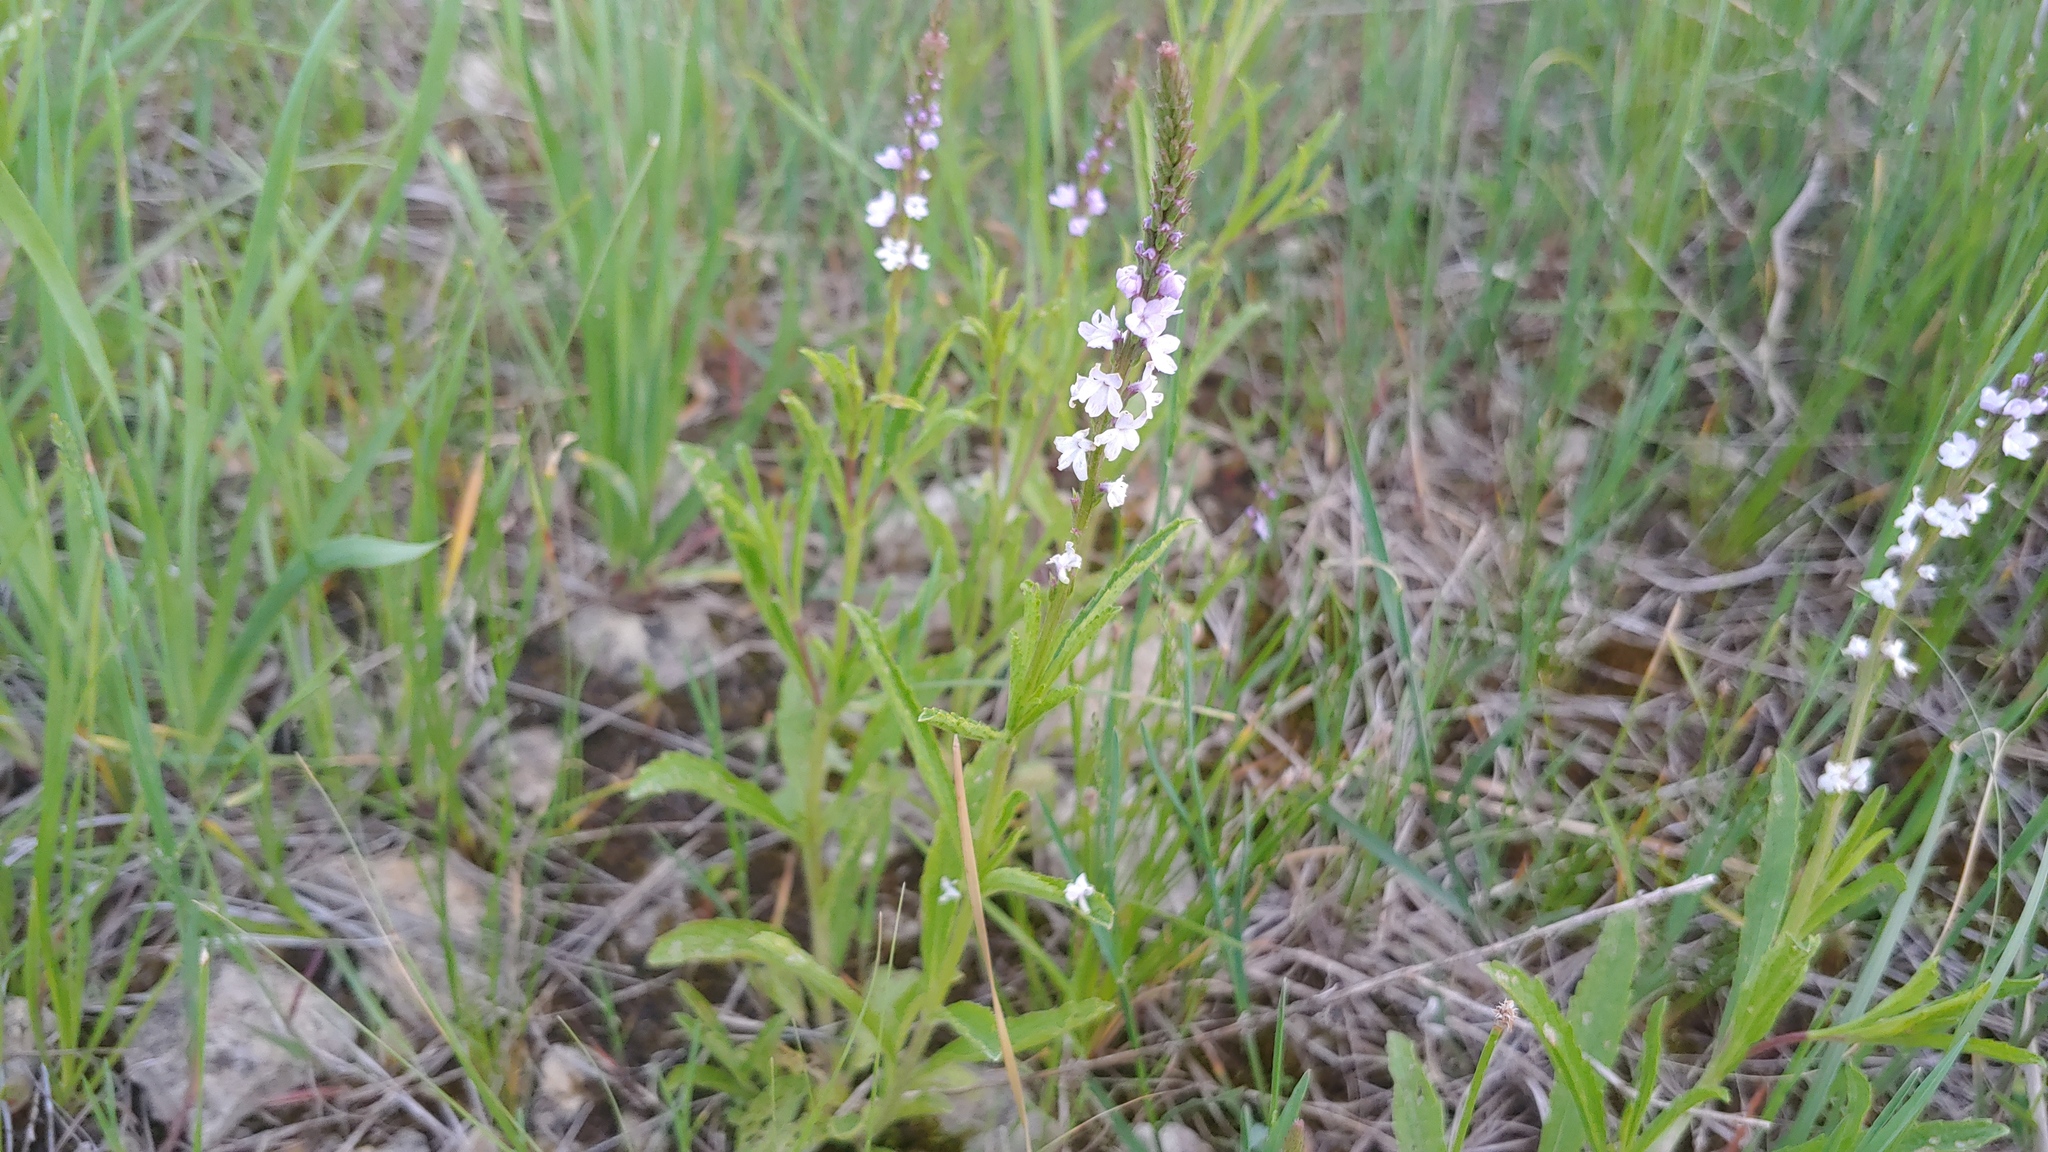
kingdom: Plantae
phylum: Tracheophyta
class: Magnoliopsida
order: Lamiales
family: Verbenaceae
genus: Verbena
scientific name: Verbena simplex
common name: Narrow-leaf vervain
